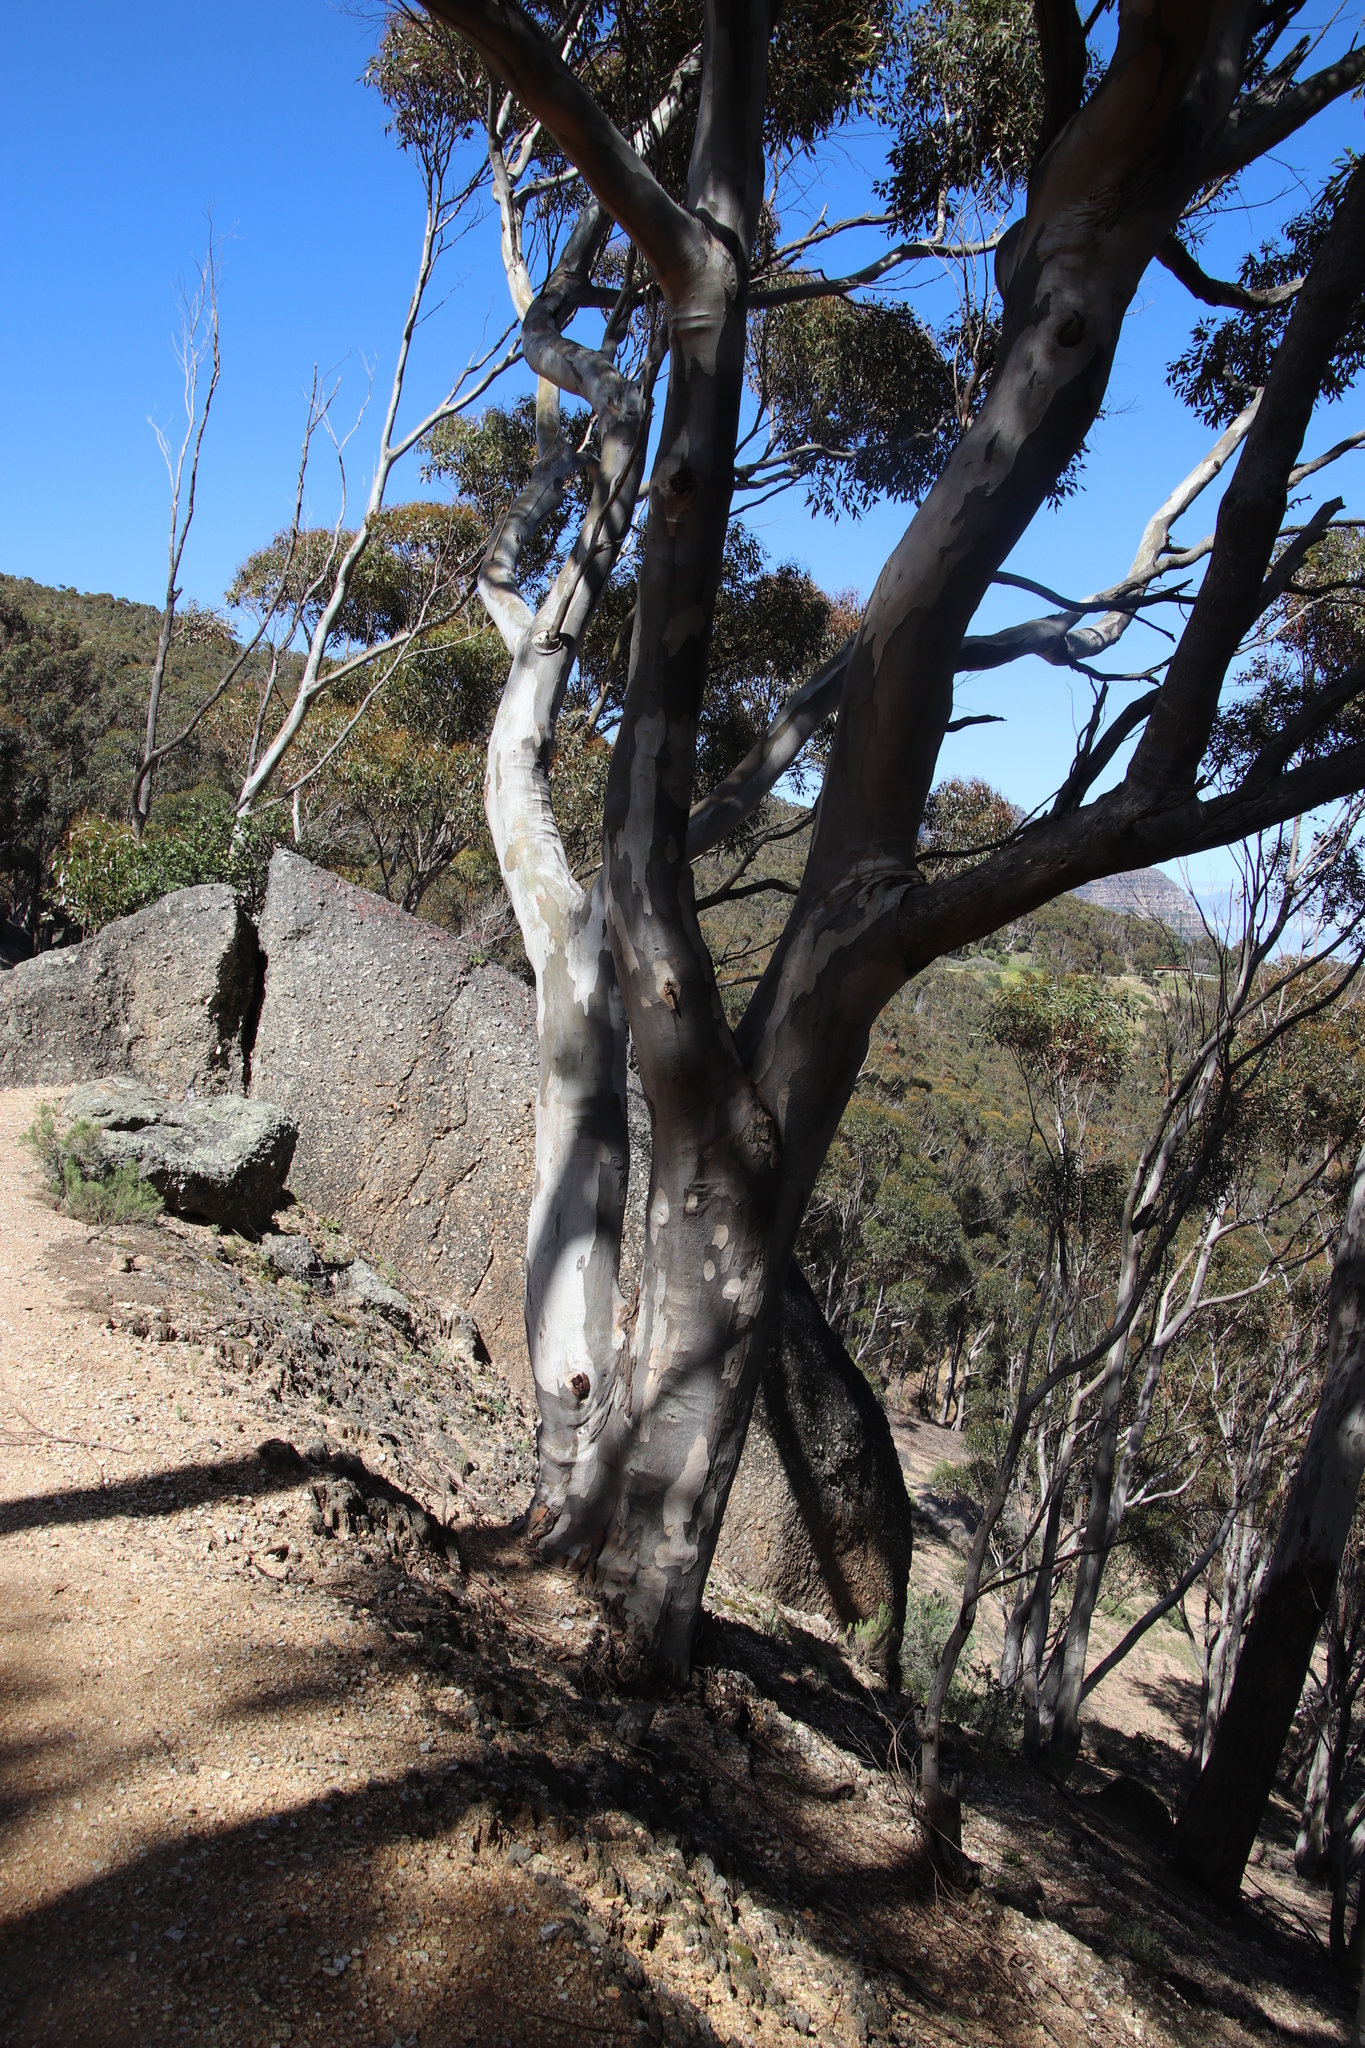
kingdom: Plantae
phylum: Tracheophyta
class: Magnoliopsida
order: Myrtales
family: Myrtaceae
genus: Eucalyptus
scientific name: Eucalyptus cladocalyx
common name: Sugargum
